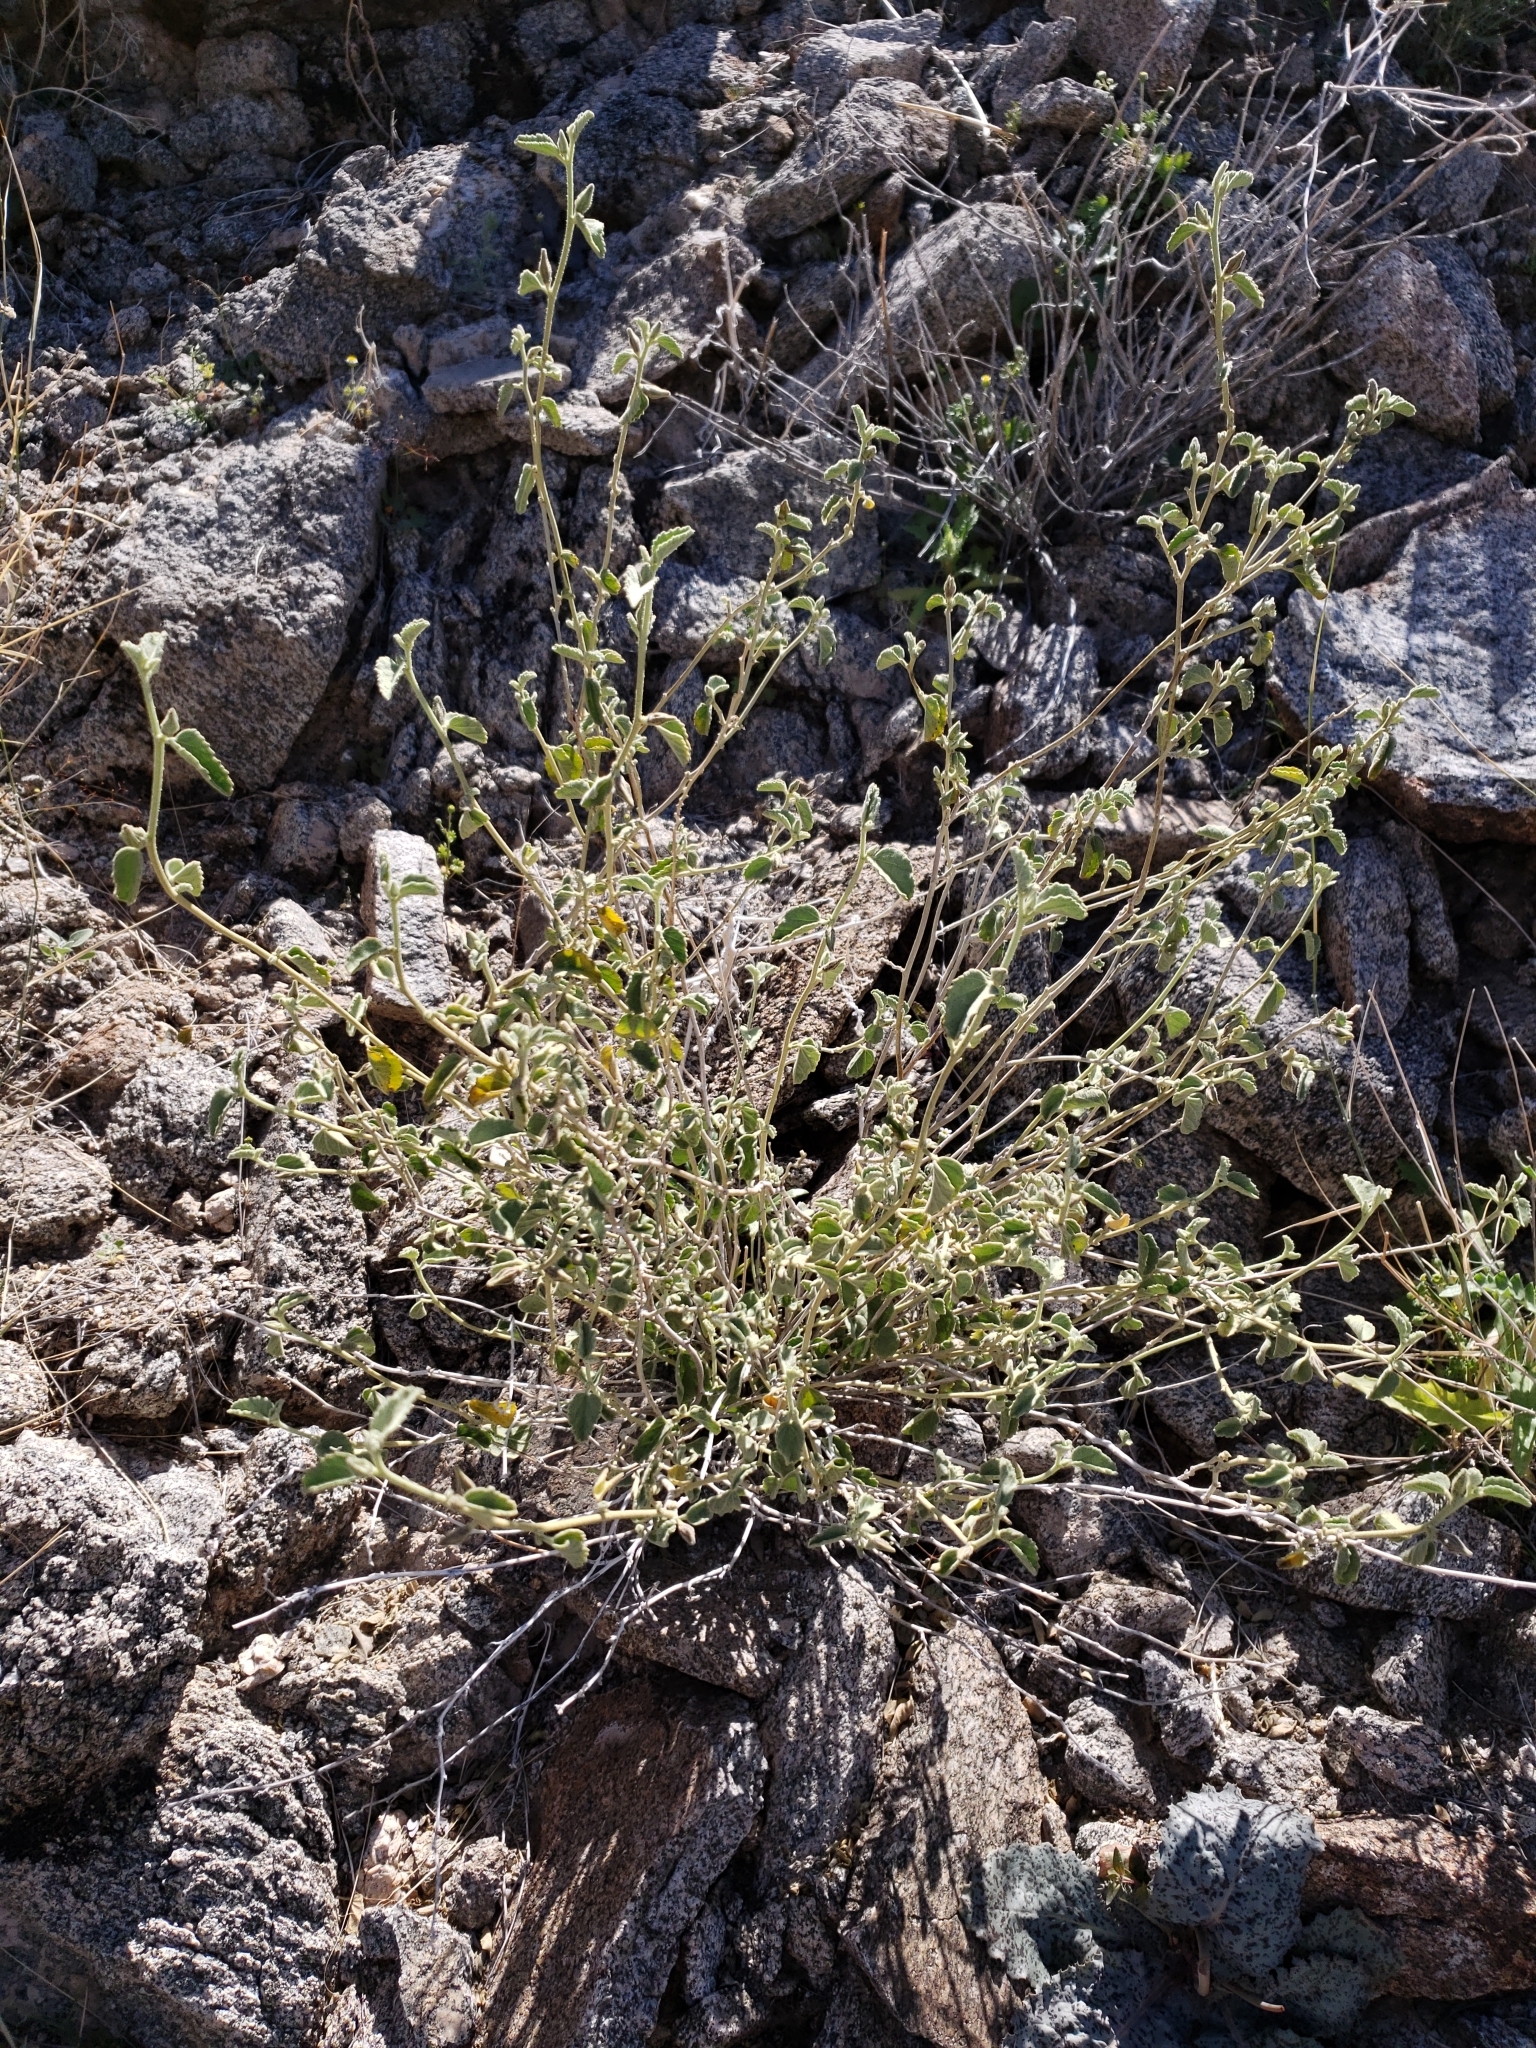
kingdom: Plantae
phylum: Tracheophyta
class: Magnoliopsida
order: Malvales
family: Malvaceae
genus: Hibiscus
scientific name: Hibiscus denudatus
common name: Paleface
